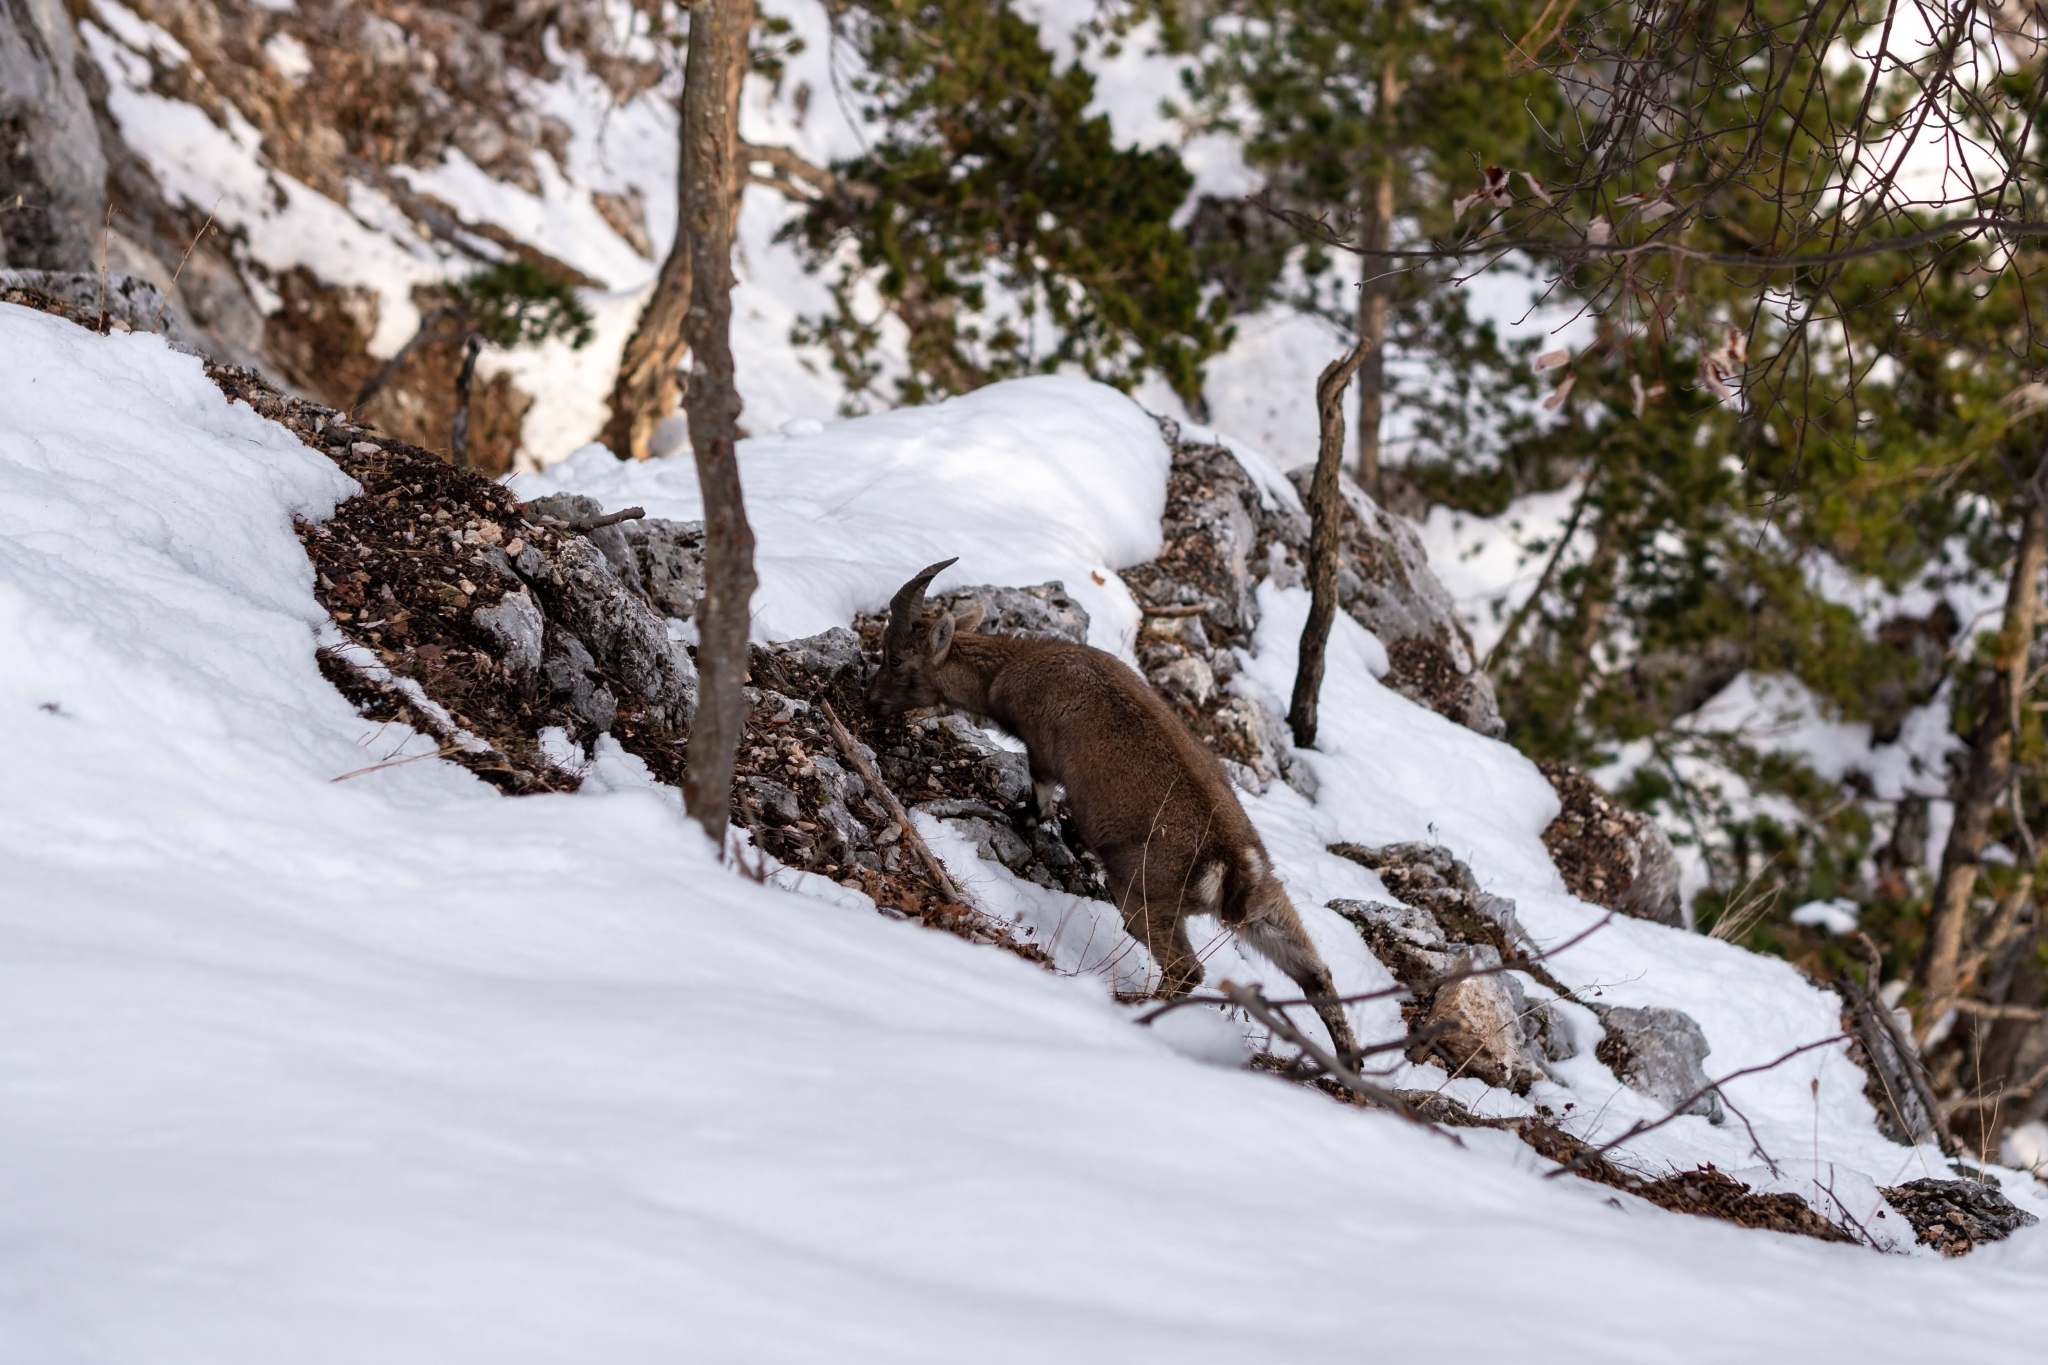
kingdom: Animalia
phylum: Chordata
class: Mammalia
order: Artiodactyla
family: Bovidae
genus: Capra
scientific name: Capra ibex
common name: Alpine ibex
